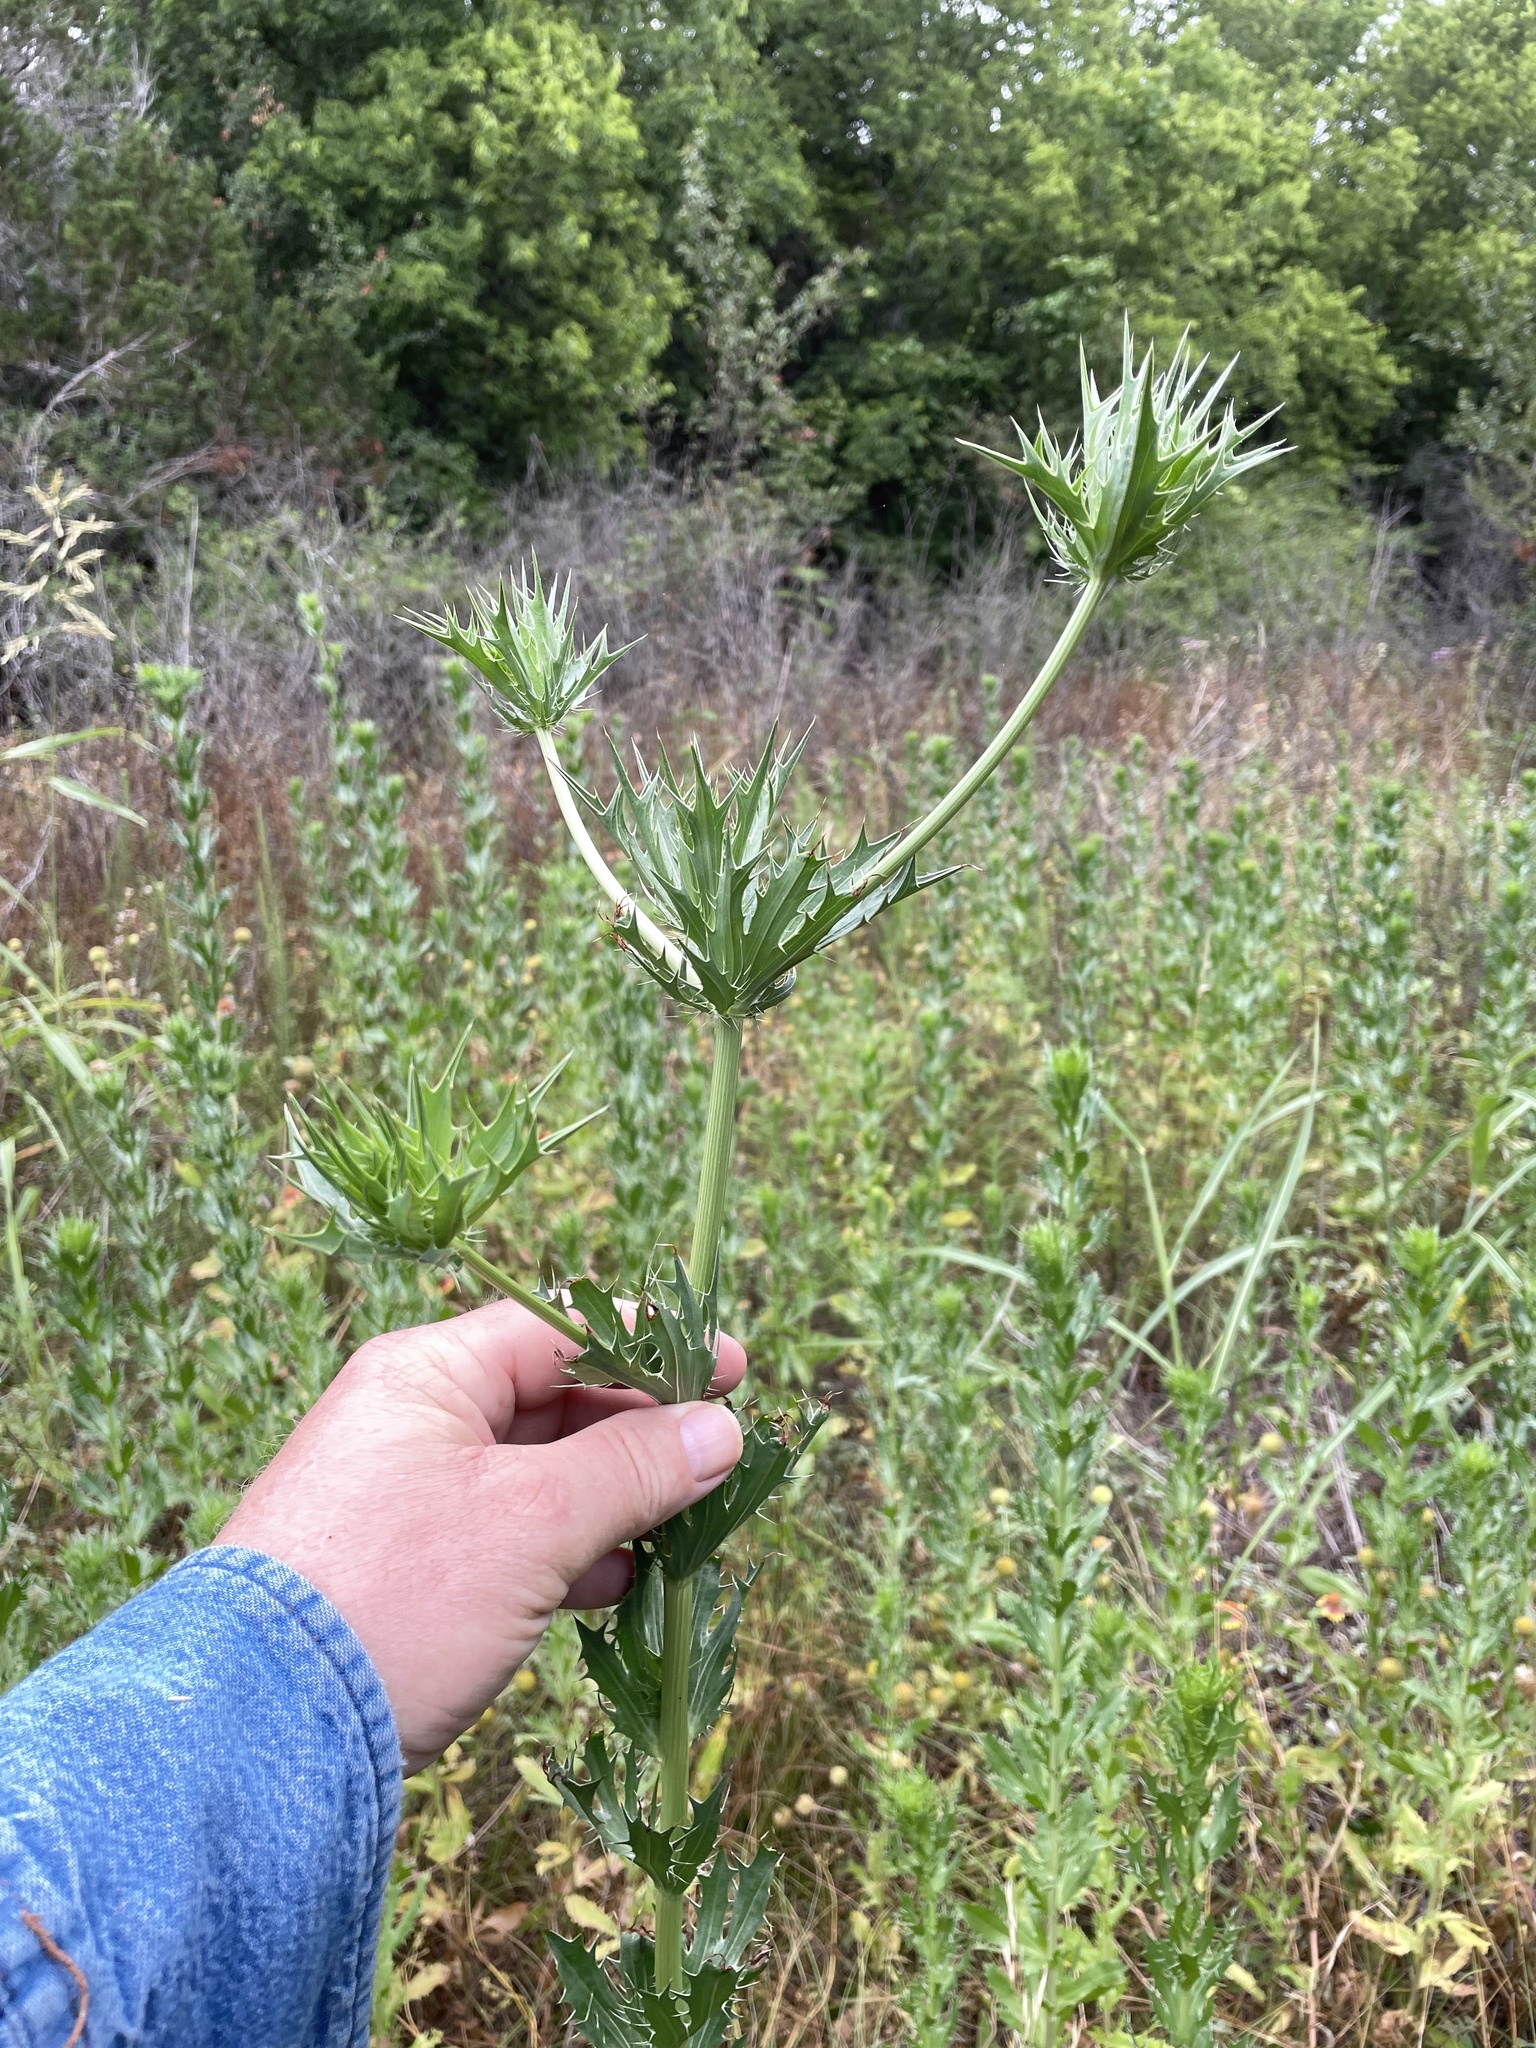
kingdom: Plantae
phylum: Tracheophyta
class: Magnoliopsida
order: Apiales
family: Apiaceae
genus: Eryngium
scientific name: Eryngium leavenworthii
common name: Leavenworth's eryngo
